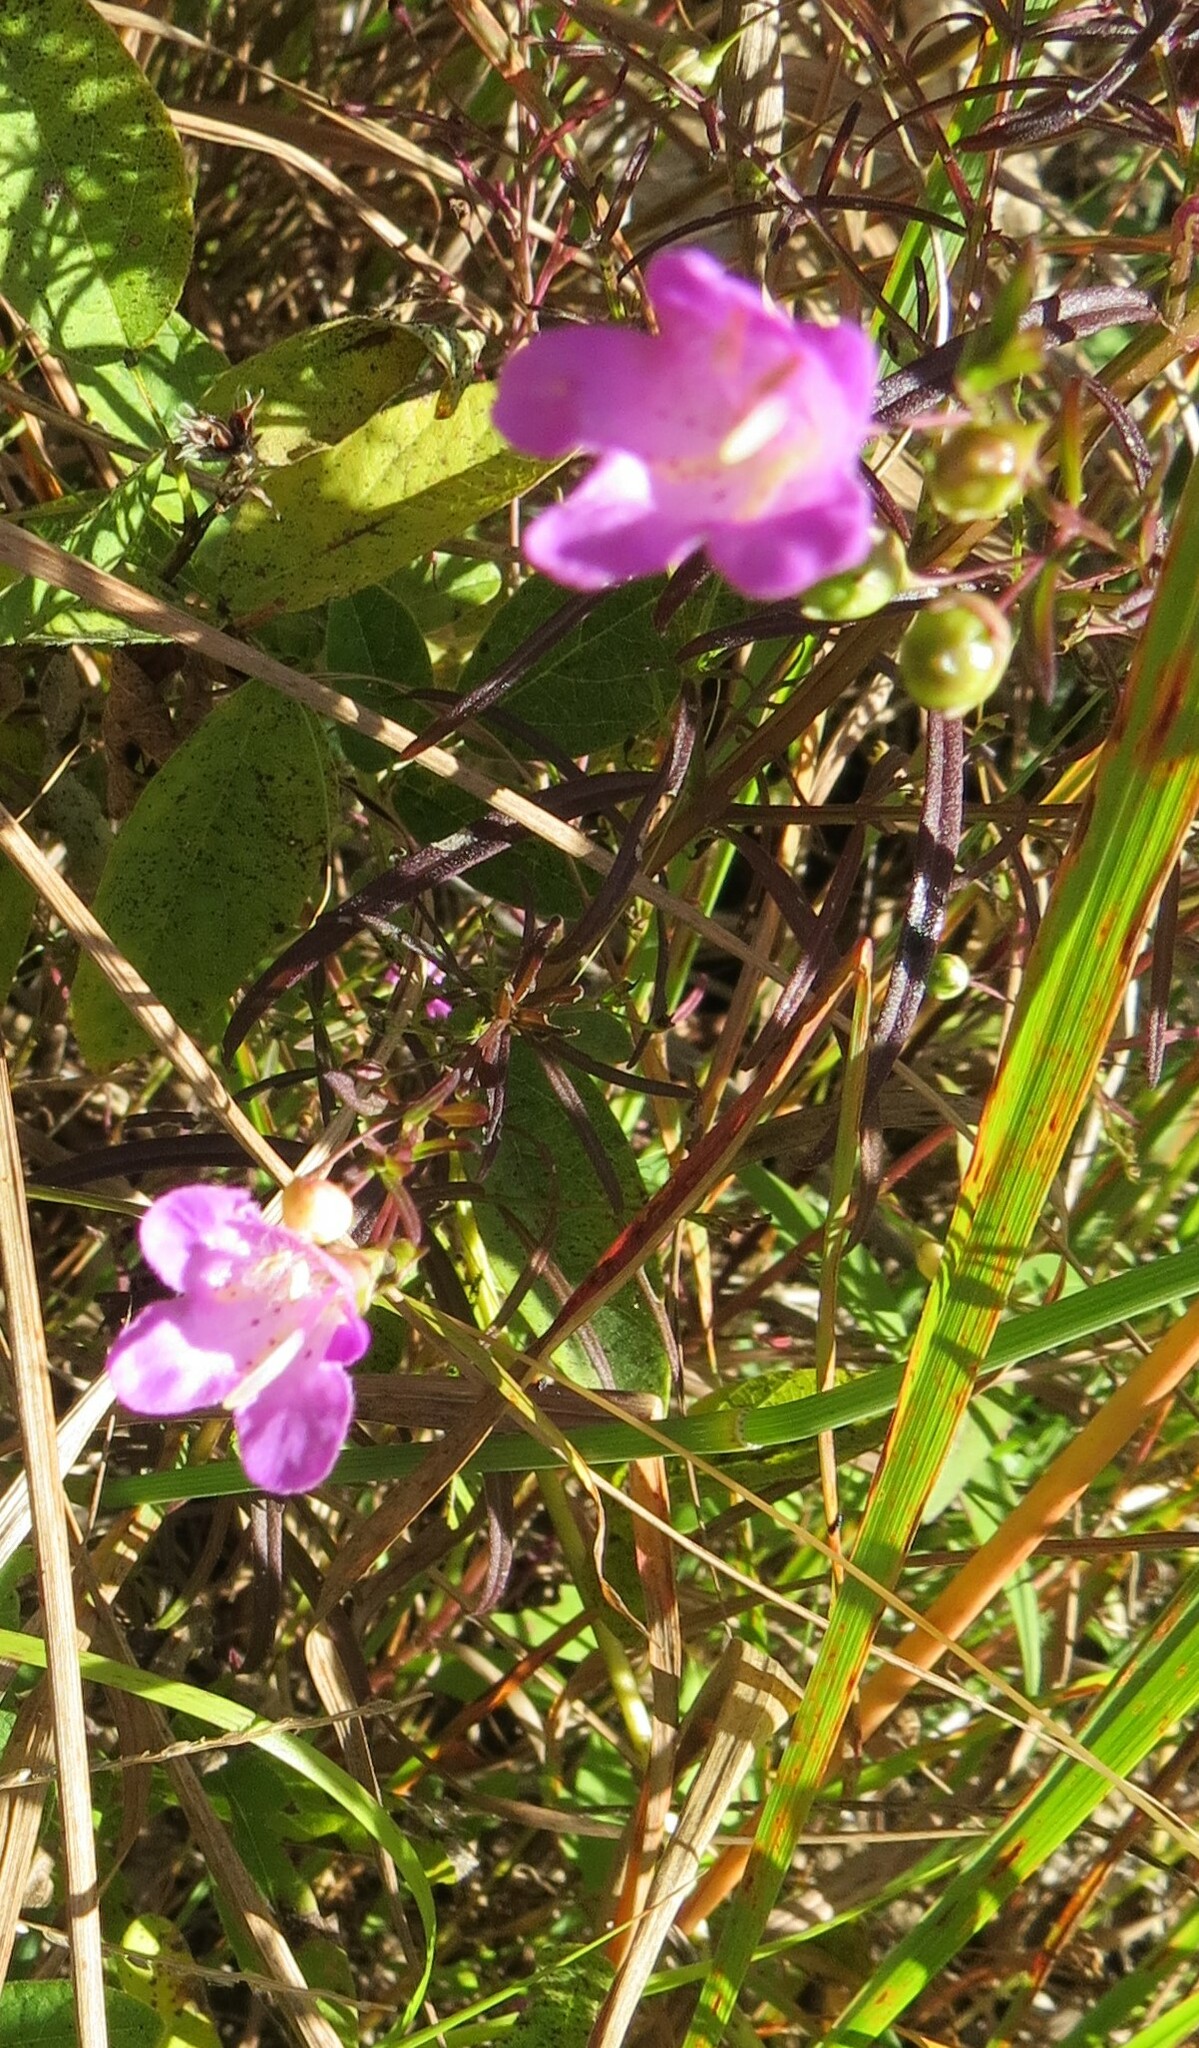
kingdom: Plantae
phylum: Tracheophyta
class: Magnoliopsida
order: Lamiales
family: Orobanchaceae
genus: Agalinis
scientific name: Agalinis tenuifolia
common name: Slender agalinis
